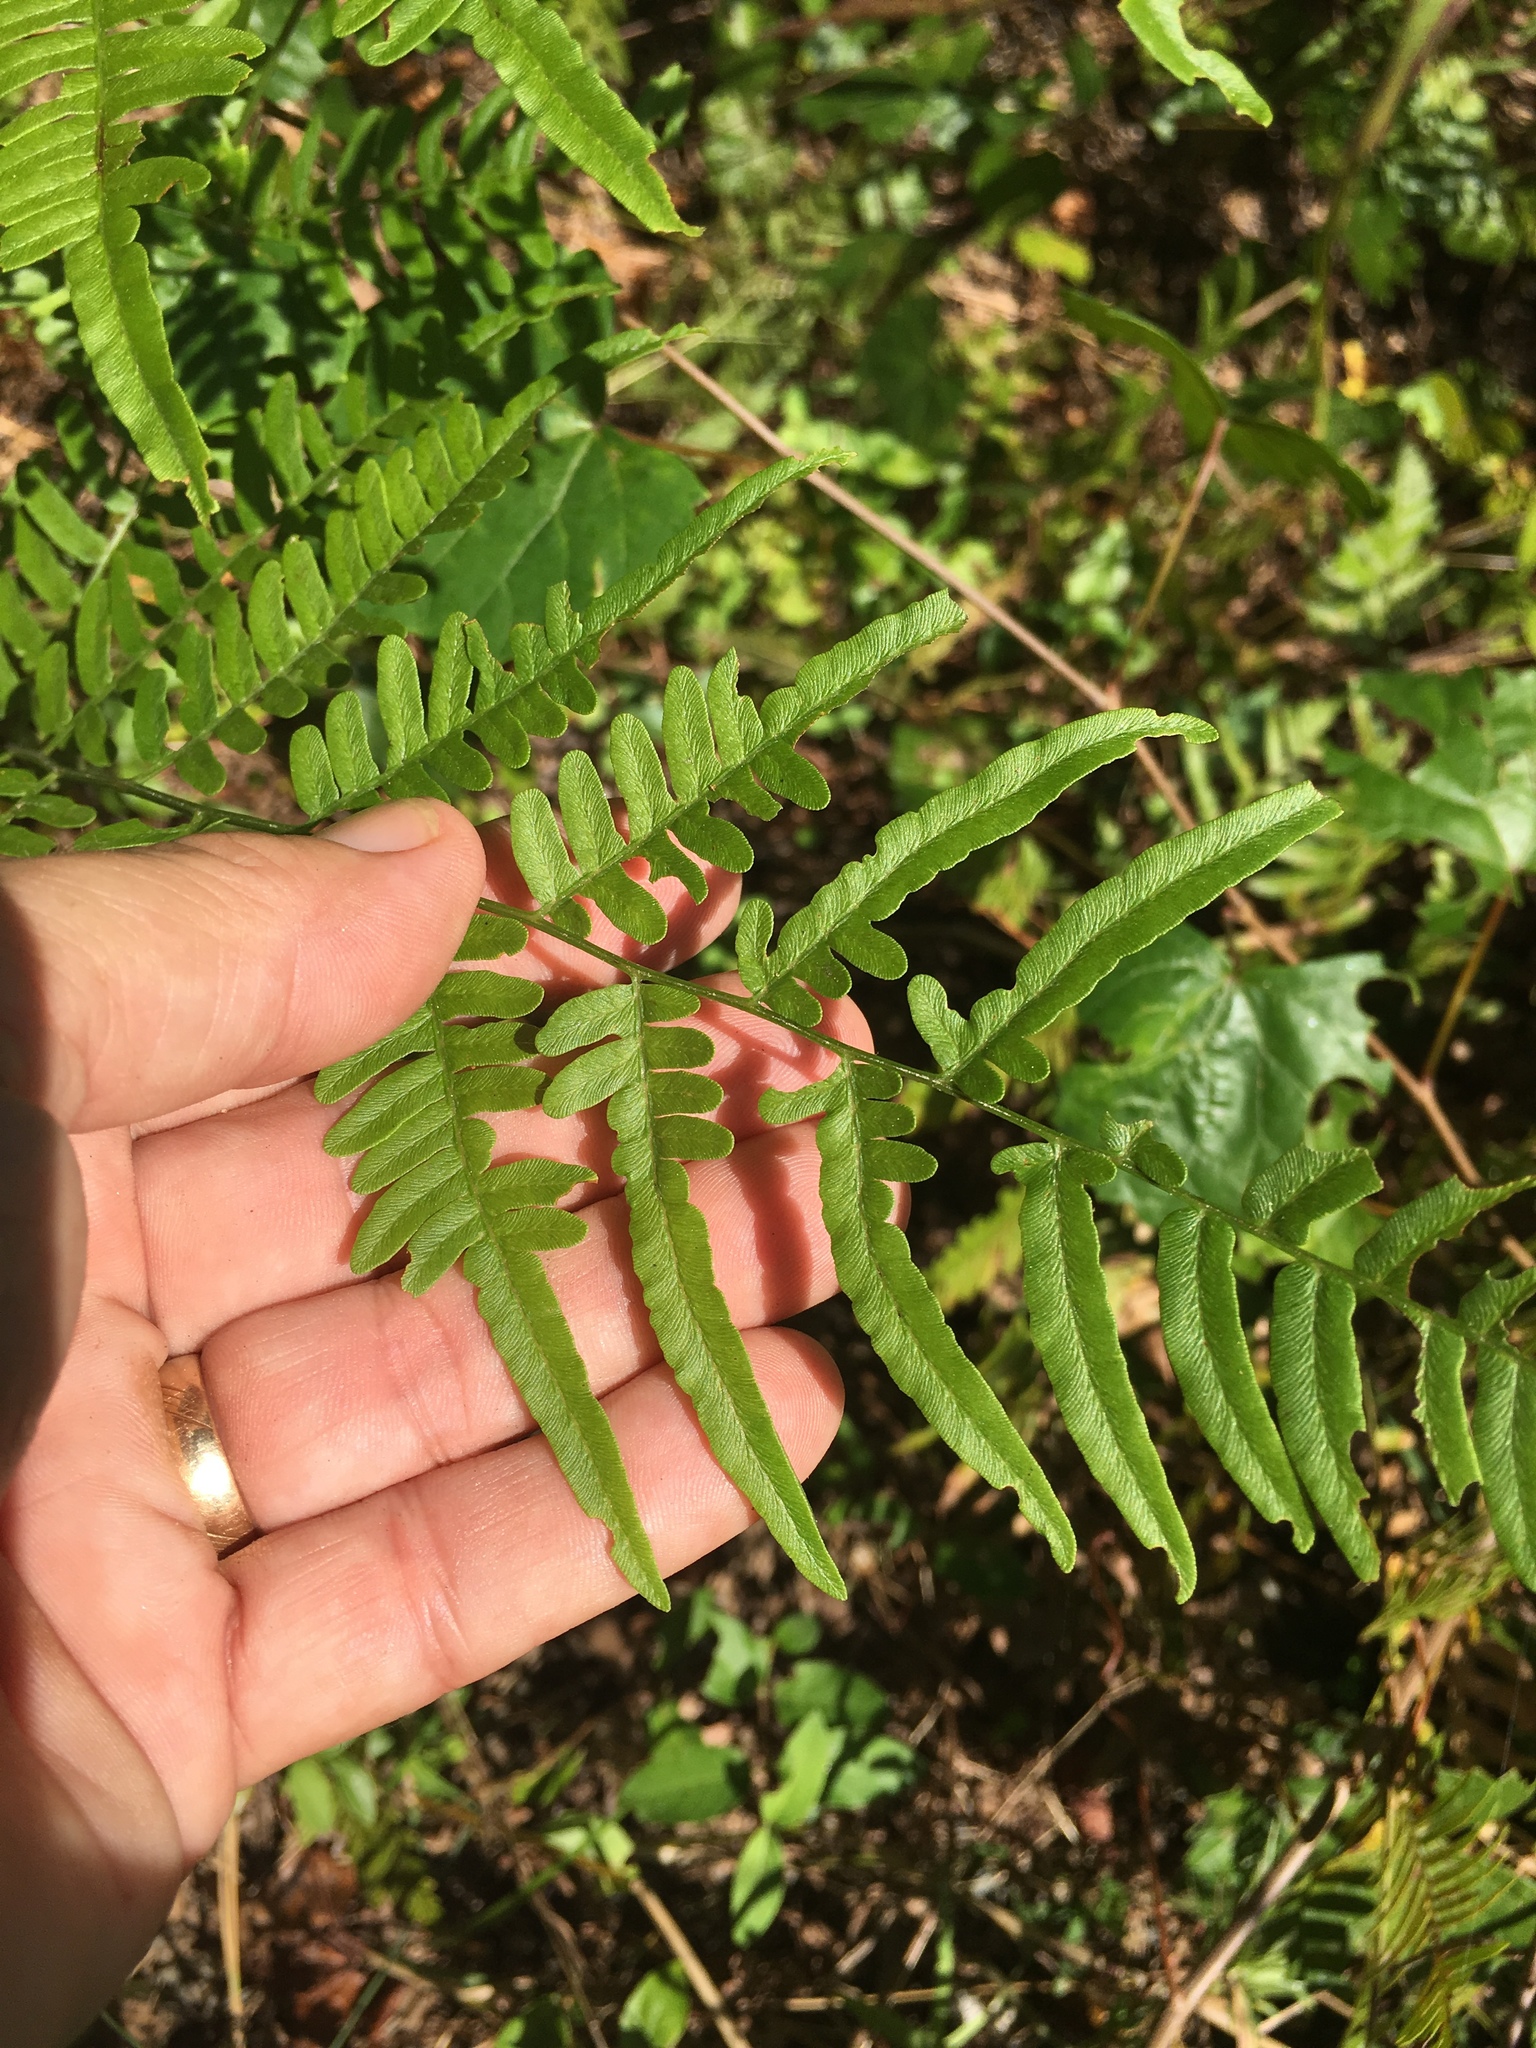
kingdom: Plantae
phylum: Tracheophyta
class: Polypodiopsida
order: Polypodiales
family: Dennstaedtiaceae
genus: Pteridium
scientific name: Pteridium
